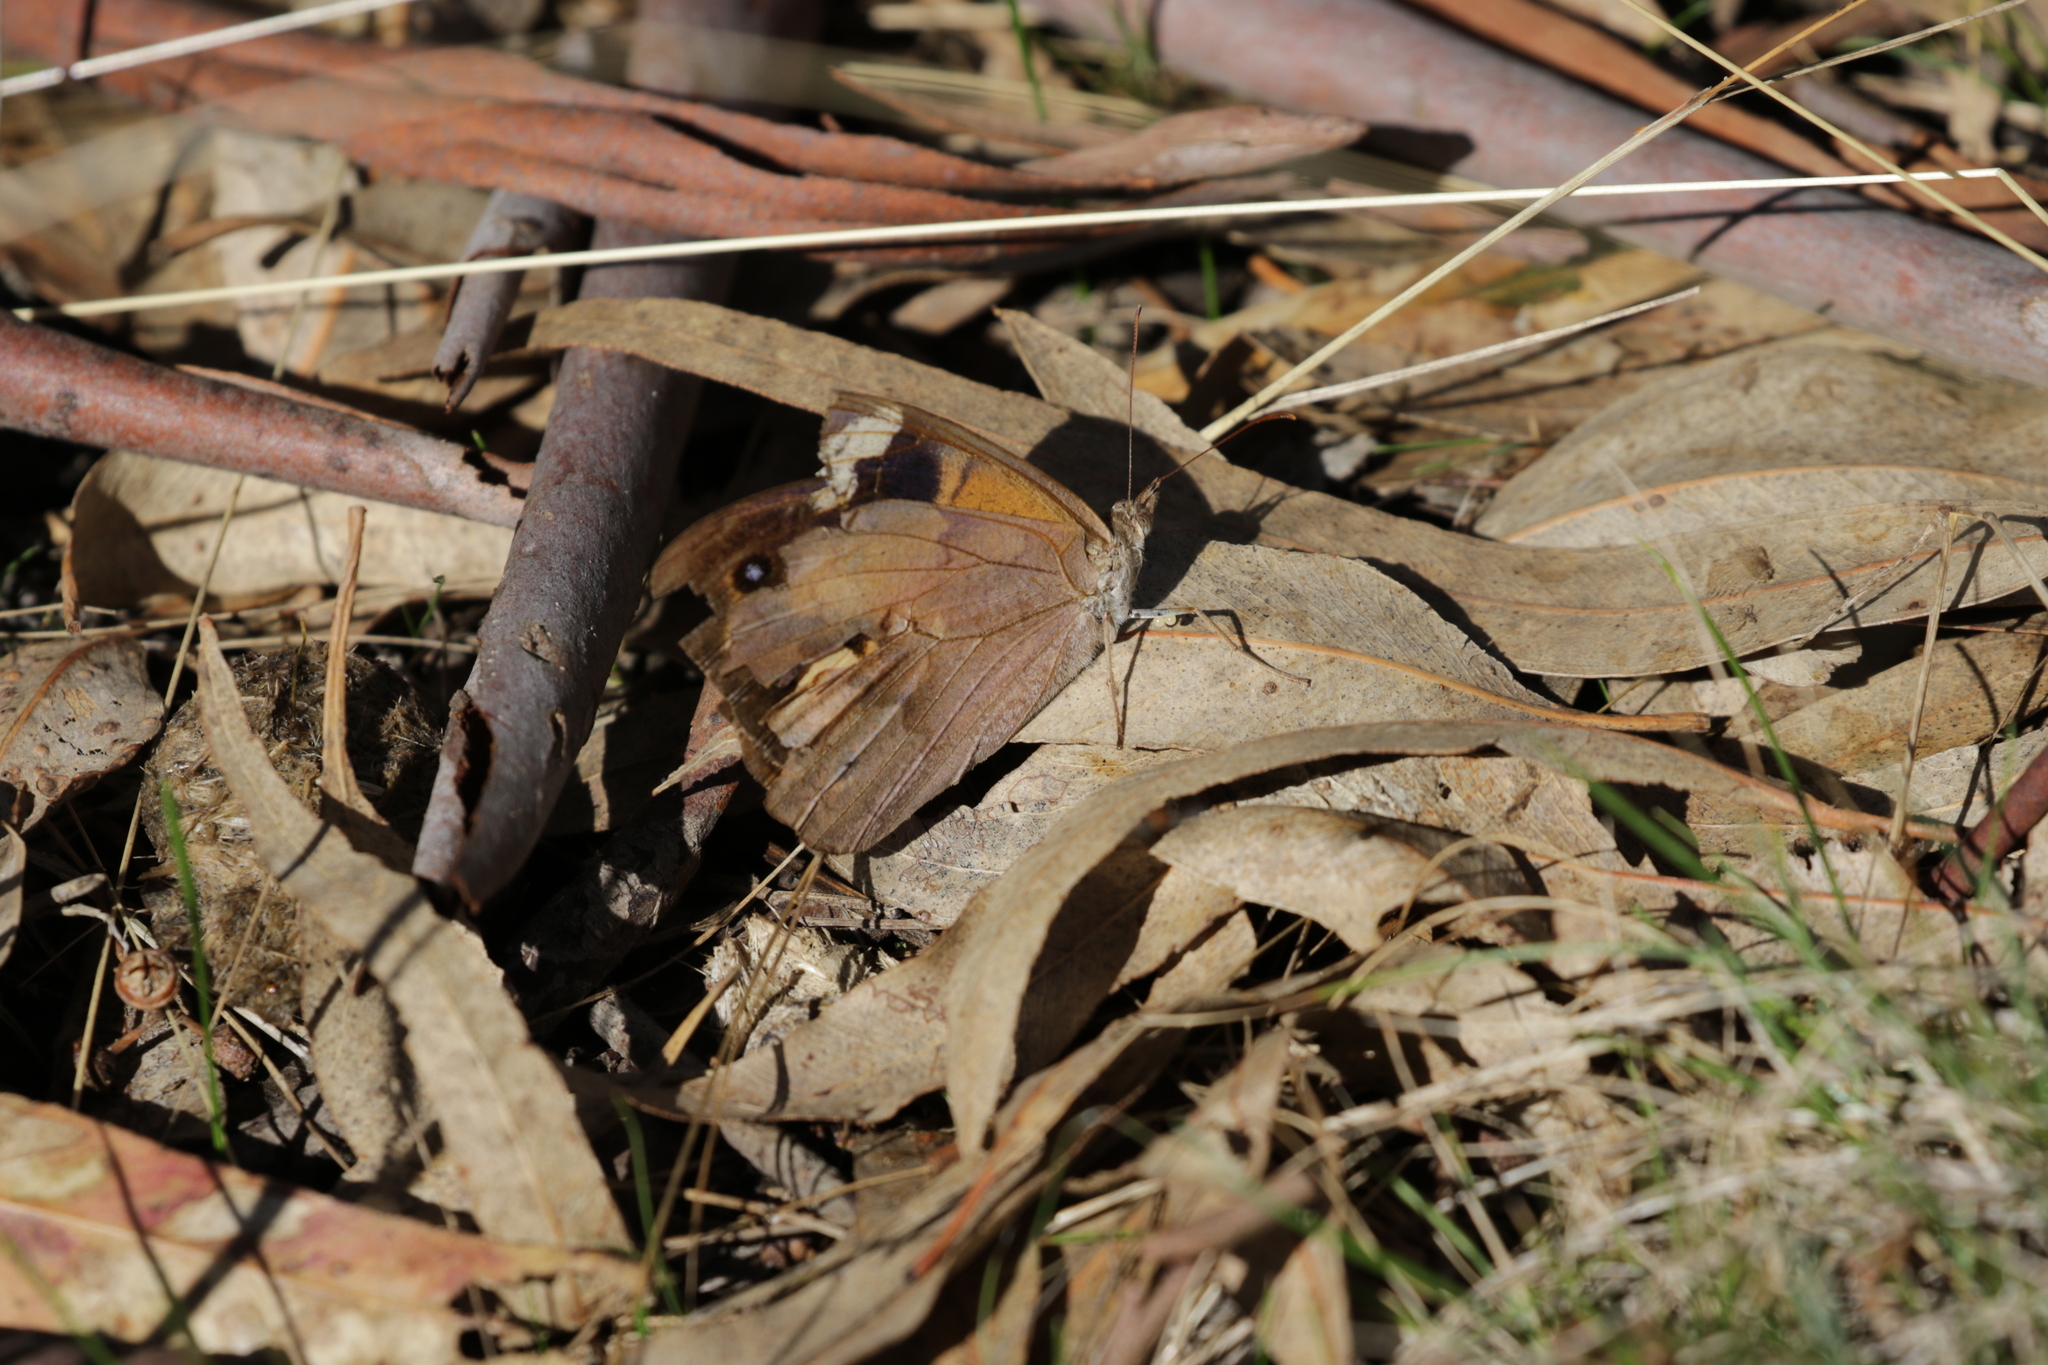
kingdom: Animalia
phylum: Arthropoda
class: Insecta
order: Lepidoptera
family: Nymphalidae
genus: Heteronympha
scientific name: Heteronympha merope
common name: Common brown
